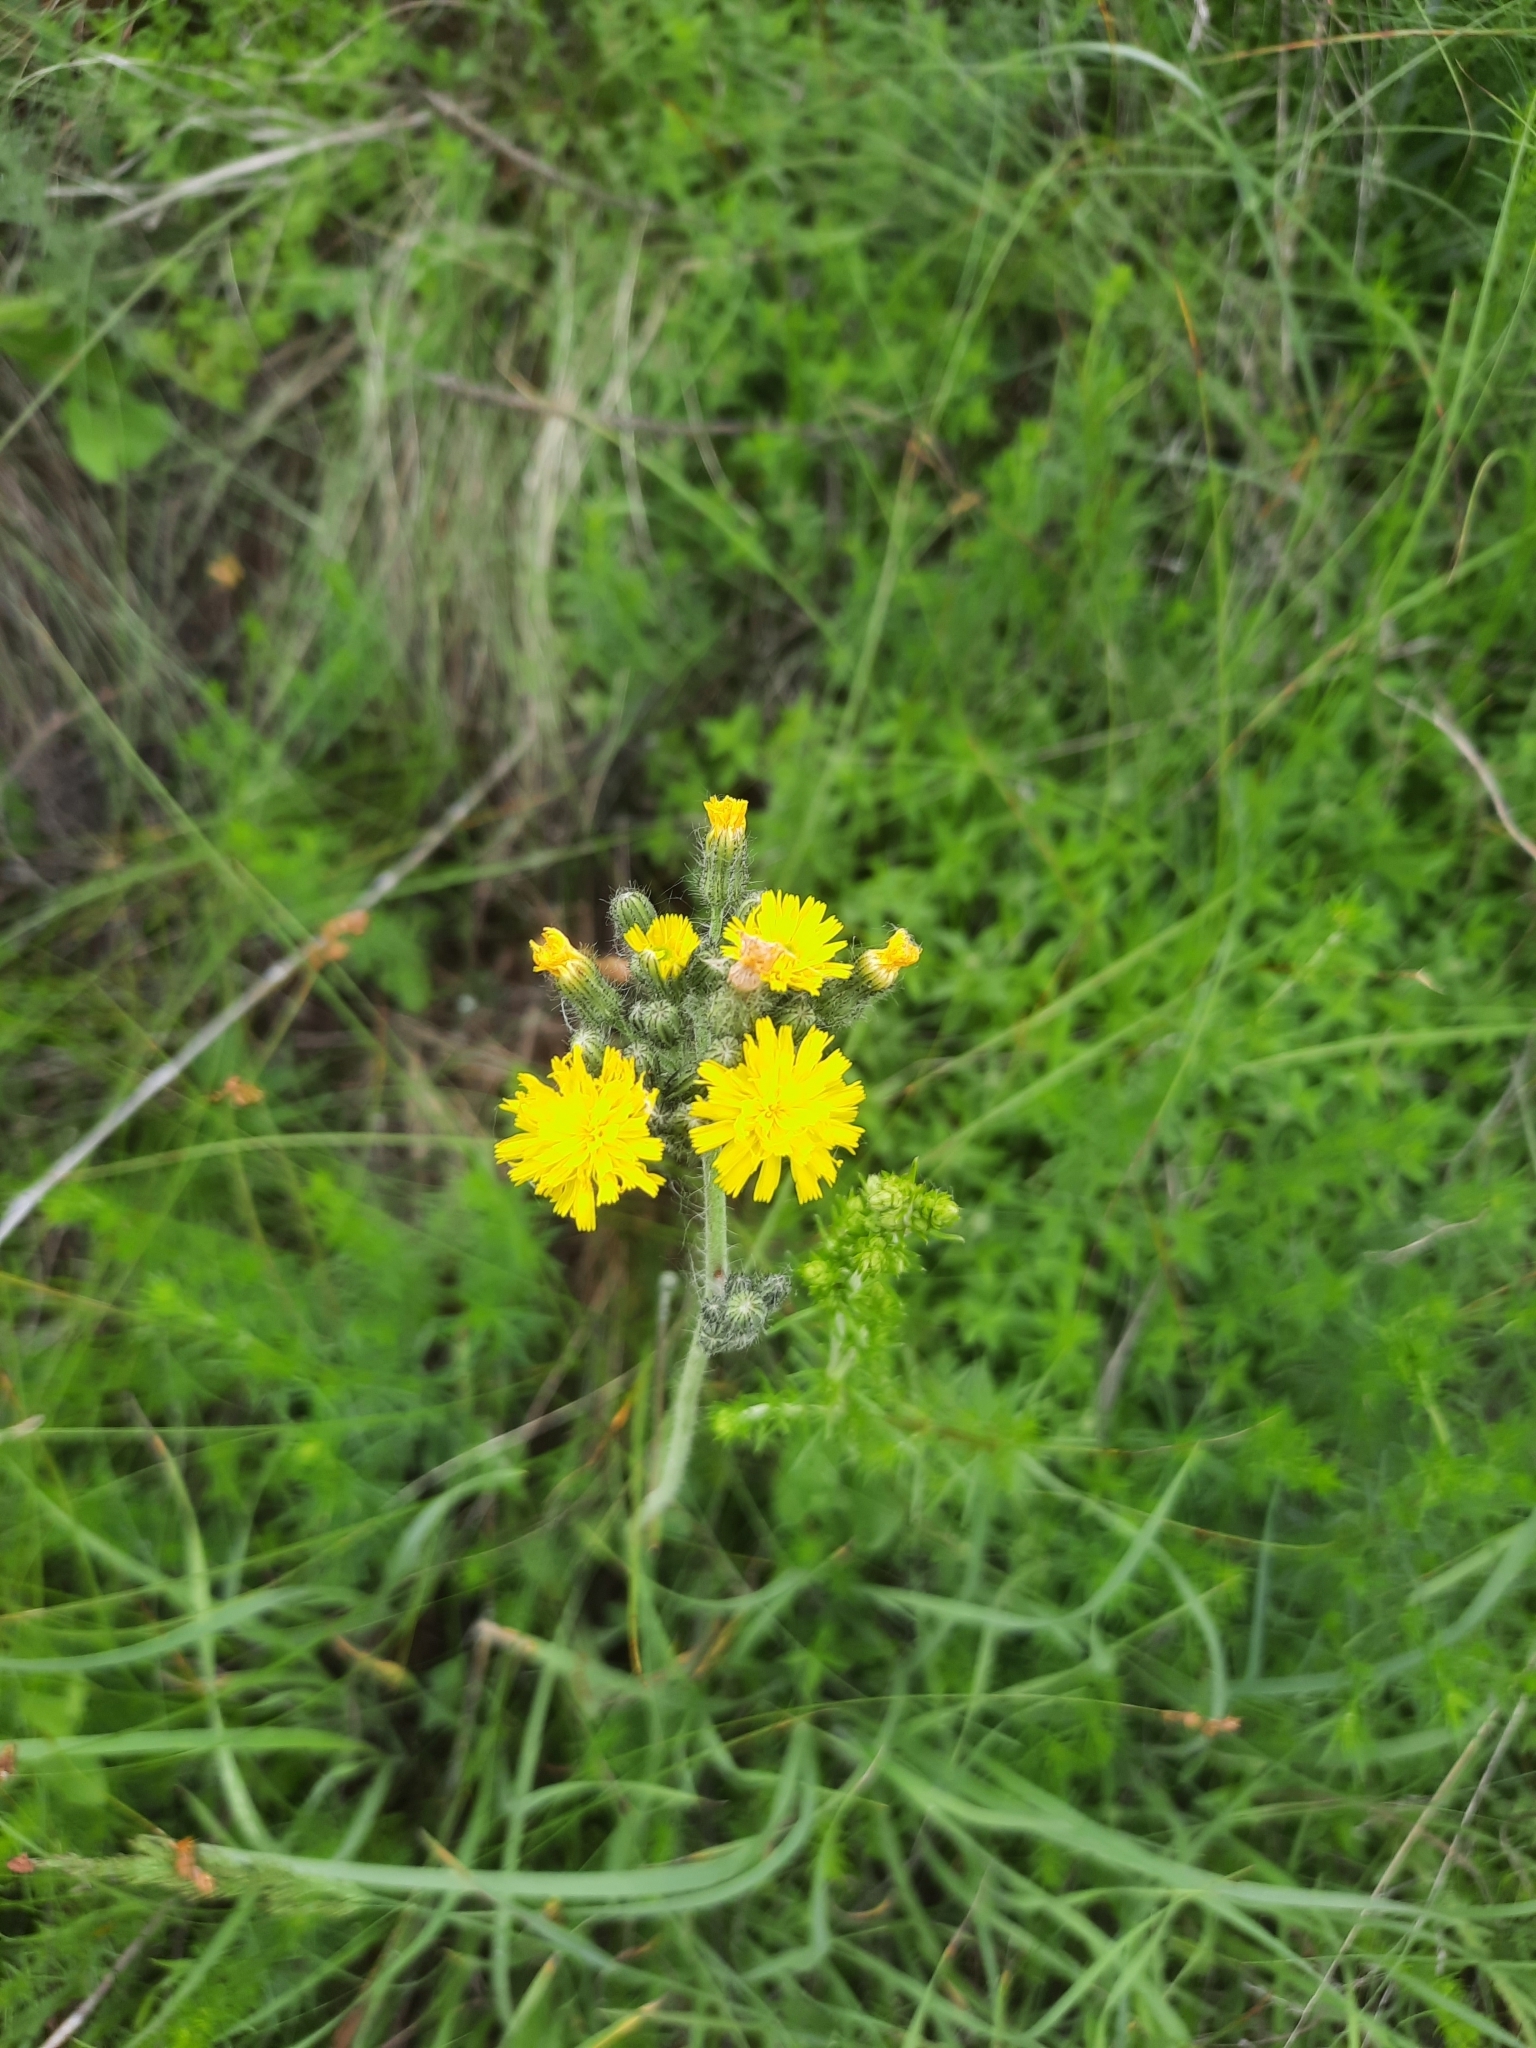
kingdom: Plantae
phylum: Tracheophyta
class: Magnoliopsida
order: Asterales
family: Asteraceae
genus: Pilosella
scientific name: Pilosella
